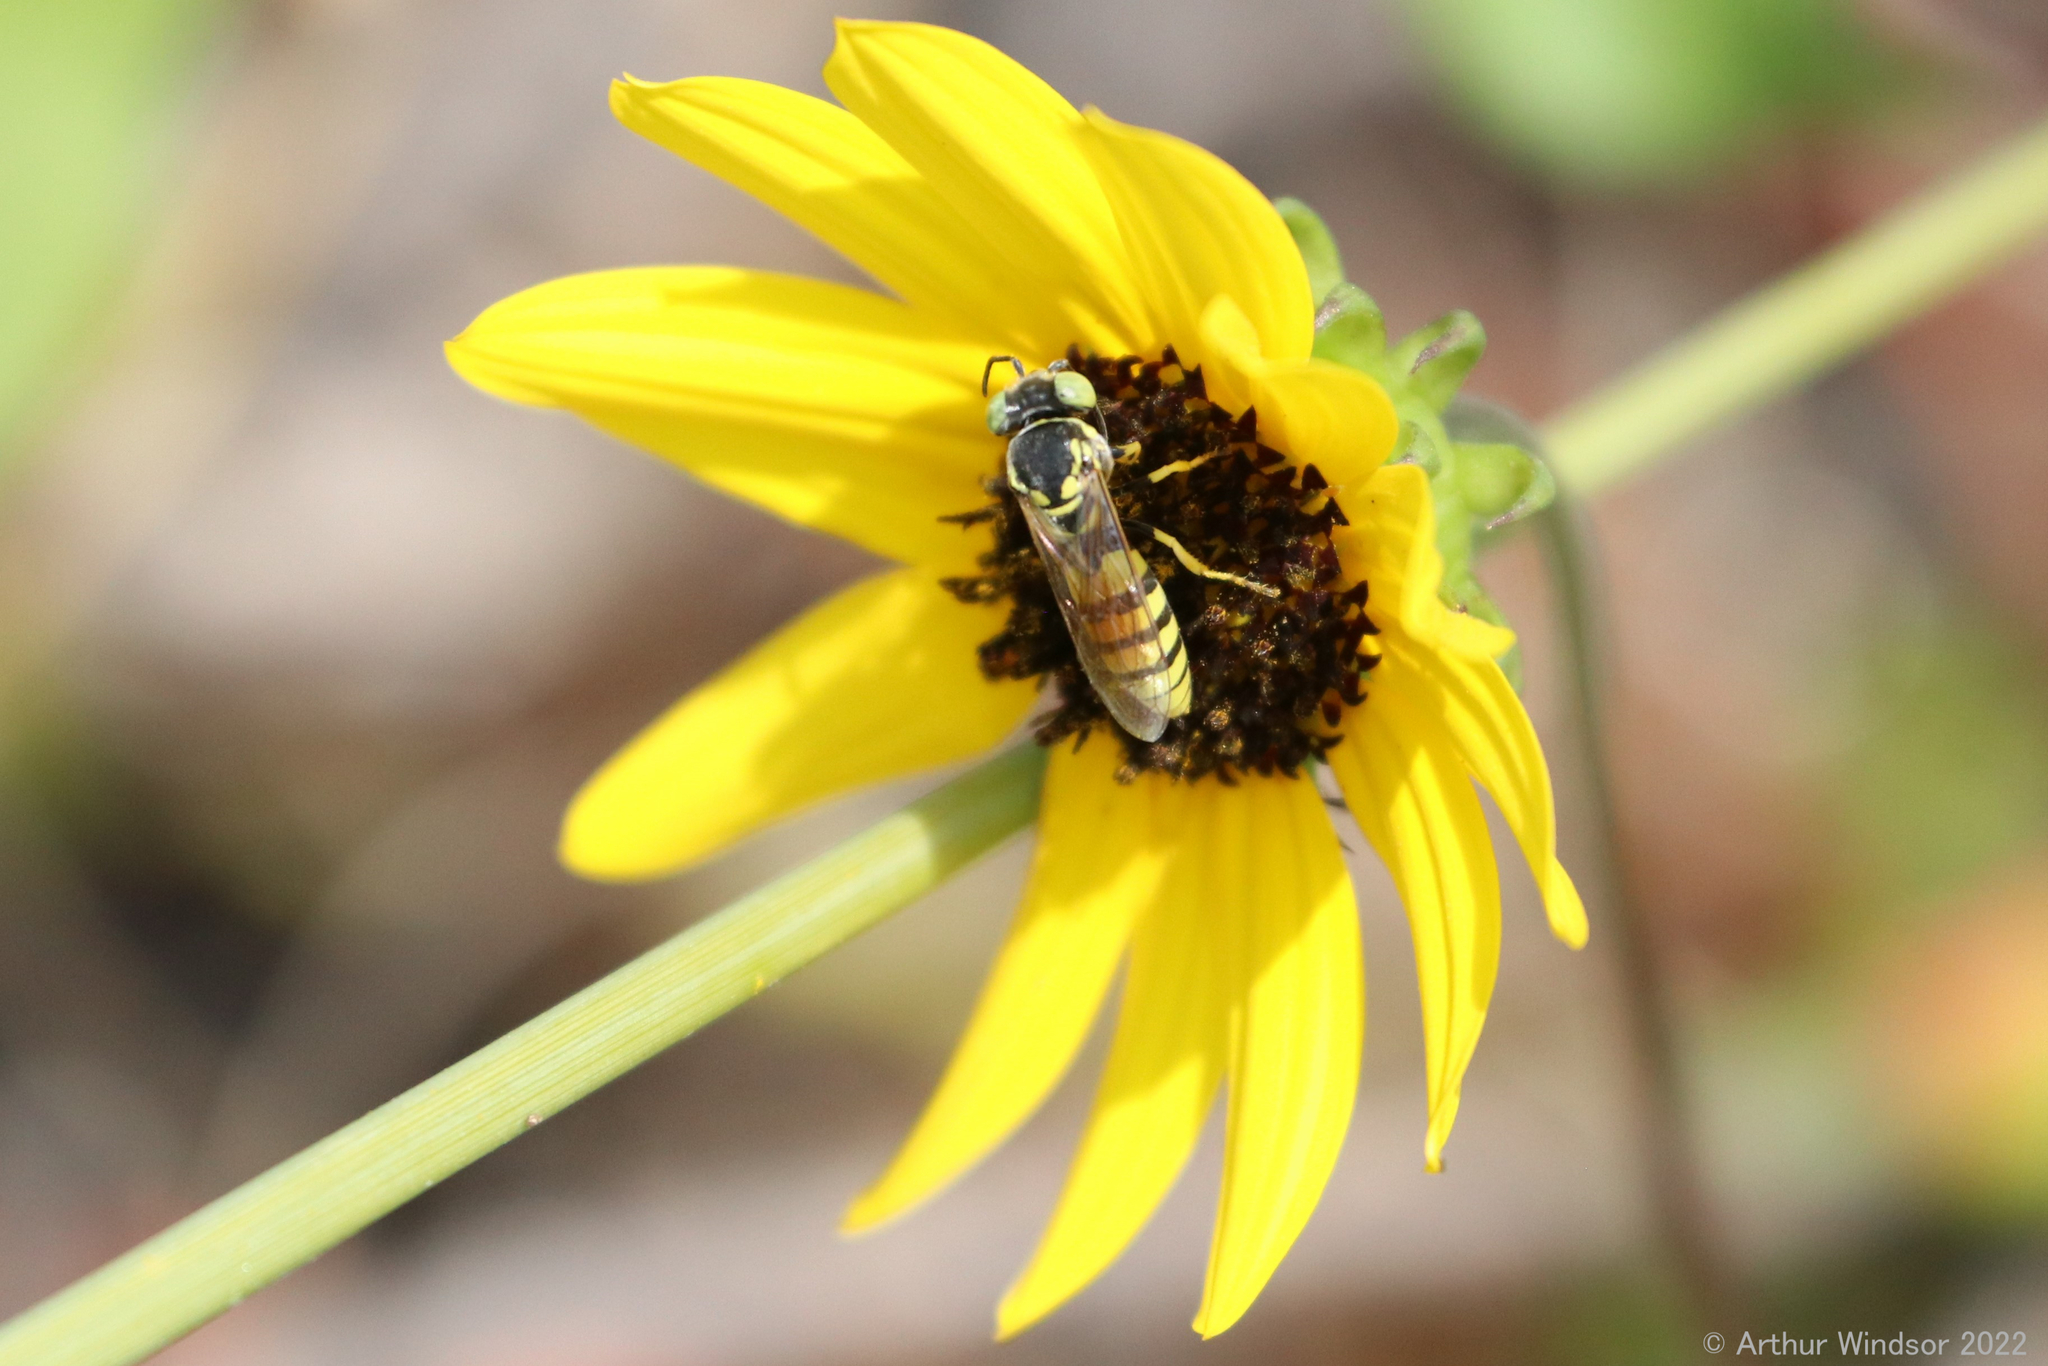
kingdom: Animalia
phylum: Arthropoda
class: Insecta
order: Hymenoptera
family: Crabronidae
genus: Microbembex
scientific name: Microbembex monodonta
